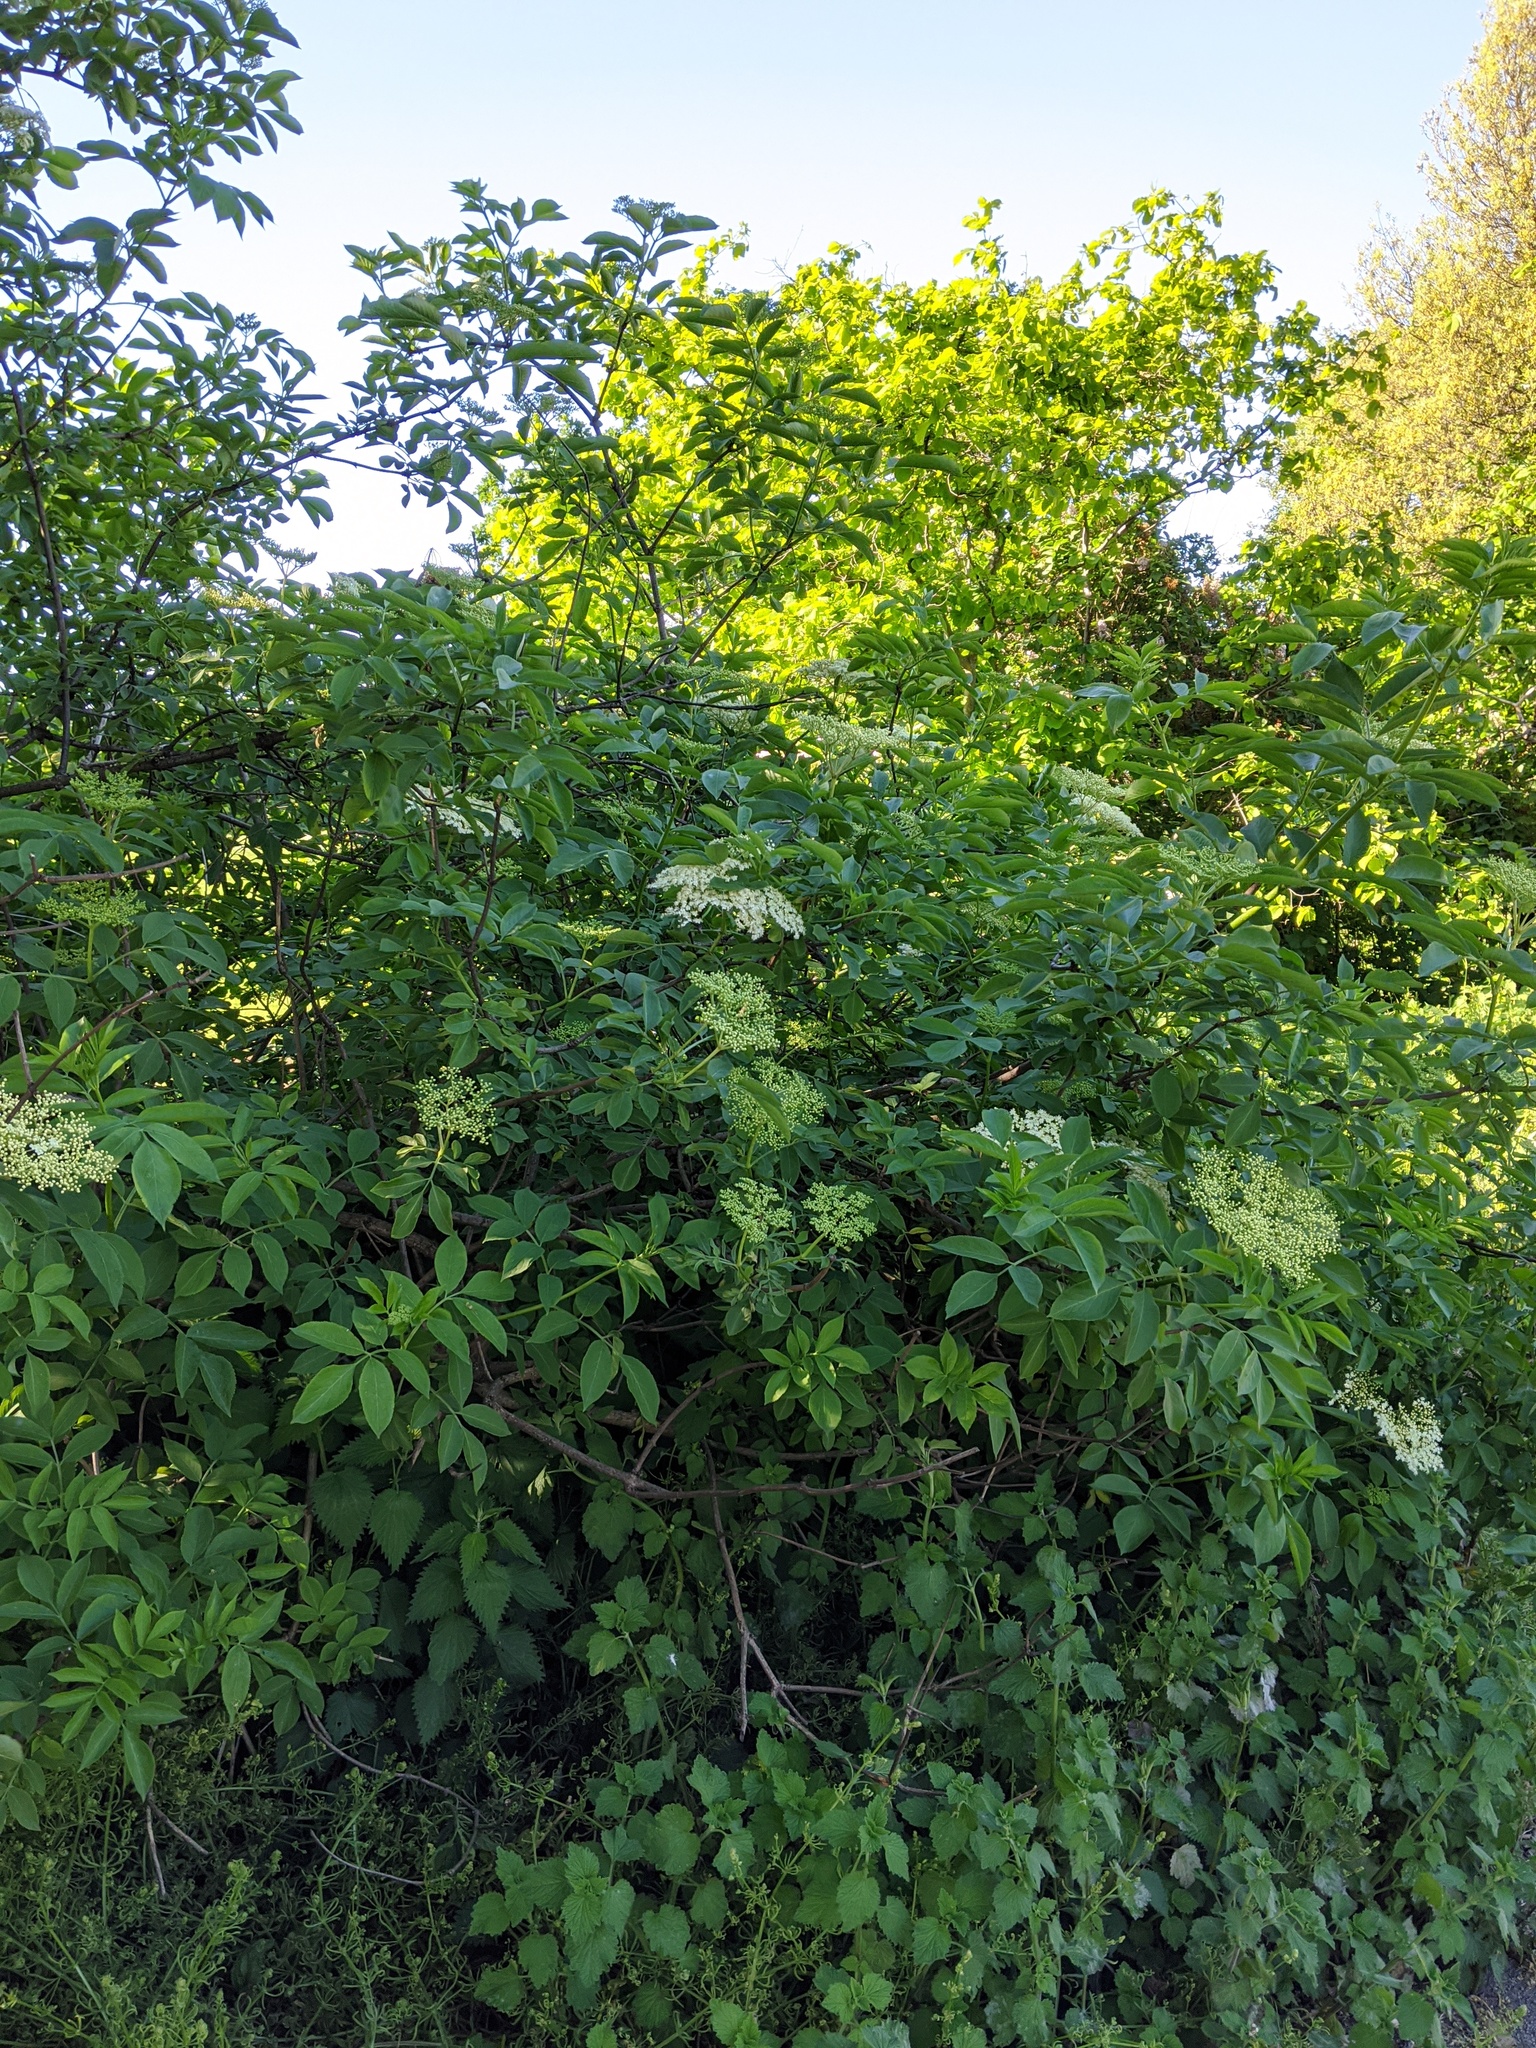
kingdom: Plantae
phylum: Tracheophyta
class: Magnoliopsida
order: Dipsacales
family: Viburnaceae
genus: Sambucus
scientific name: Sambucus nigra
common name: Elder
